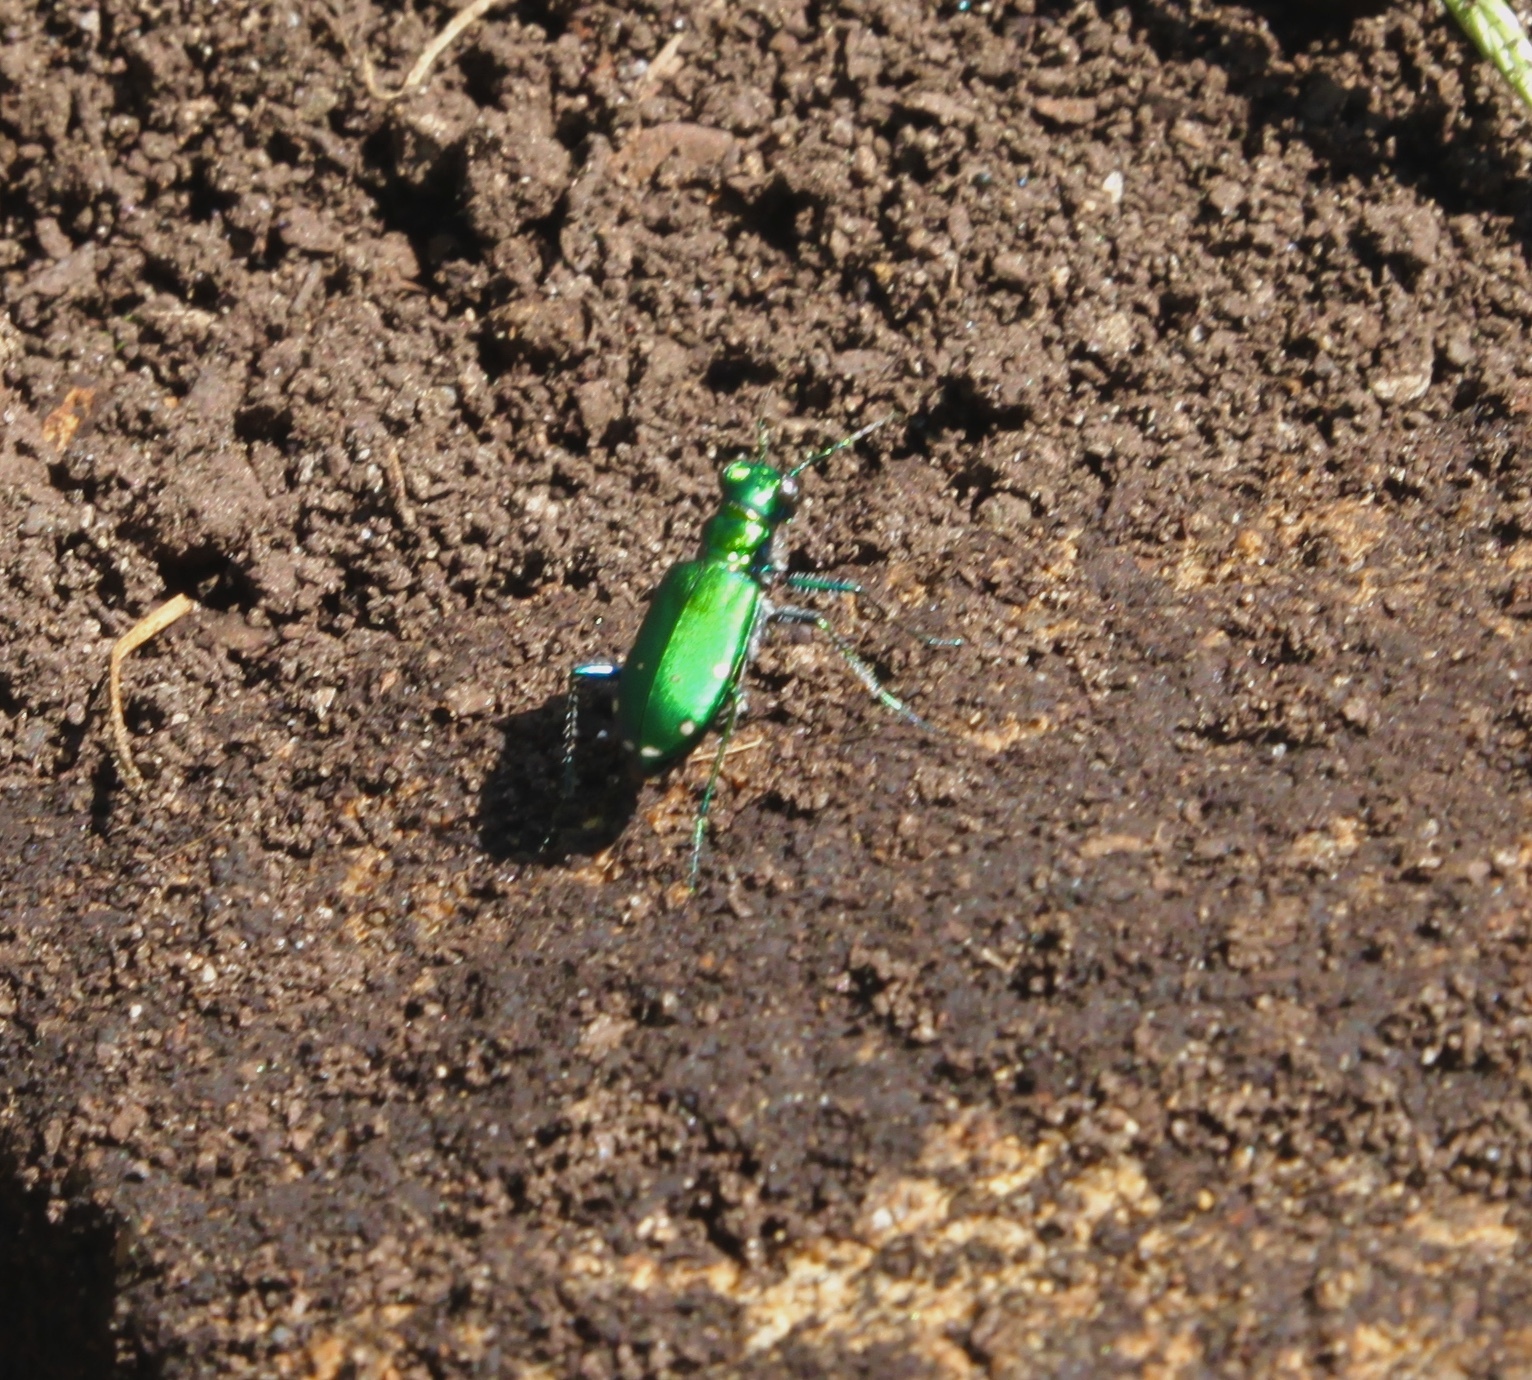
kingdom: Animalia
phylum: Arthropoda
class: Insecta
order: Coleoptera
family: Carabidae
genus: Cicindela
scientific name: Cicindela sexguttata
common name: Six-spotted tiger beetle
